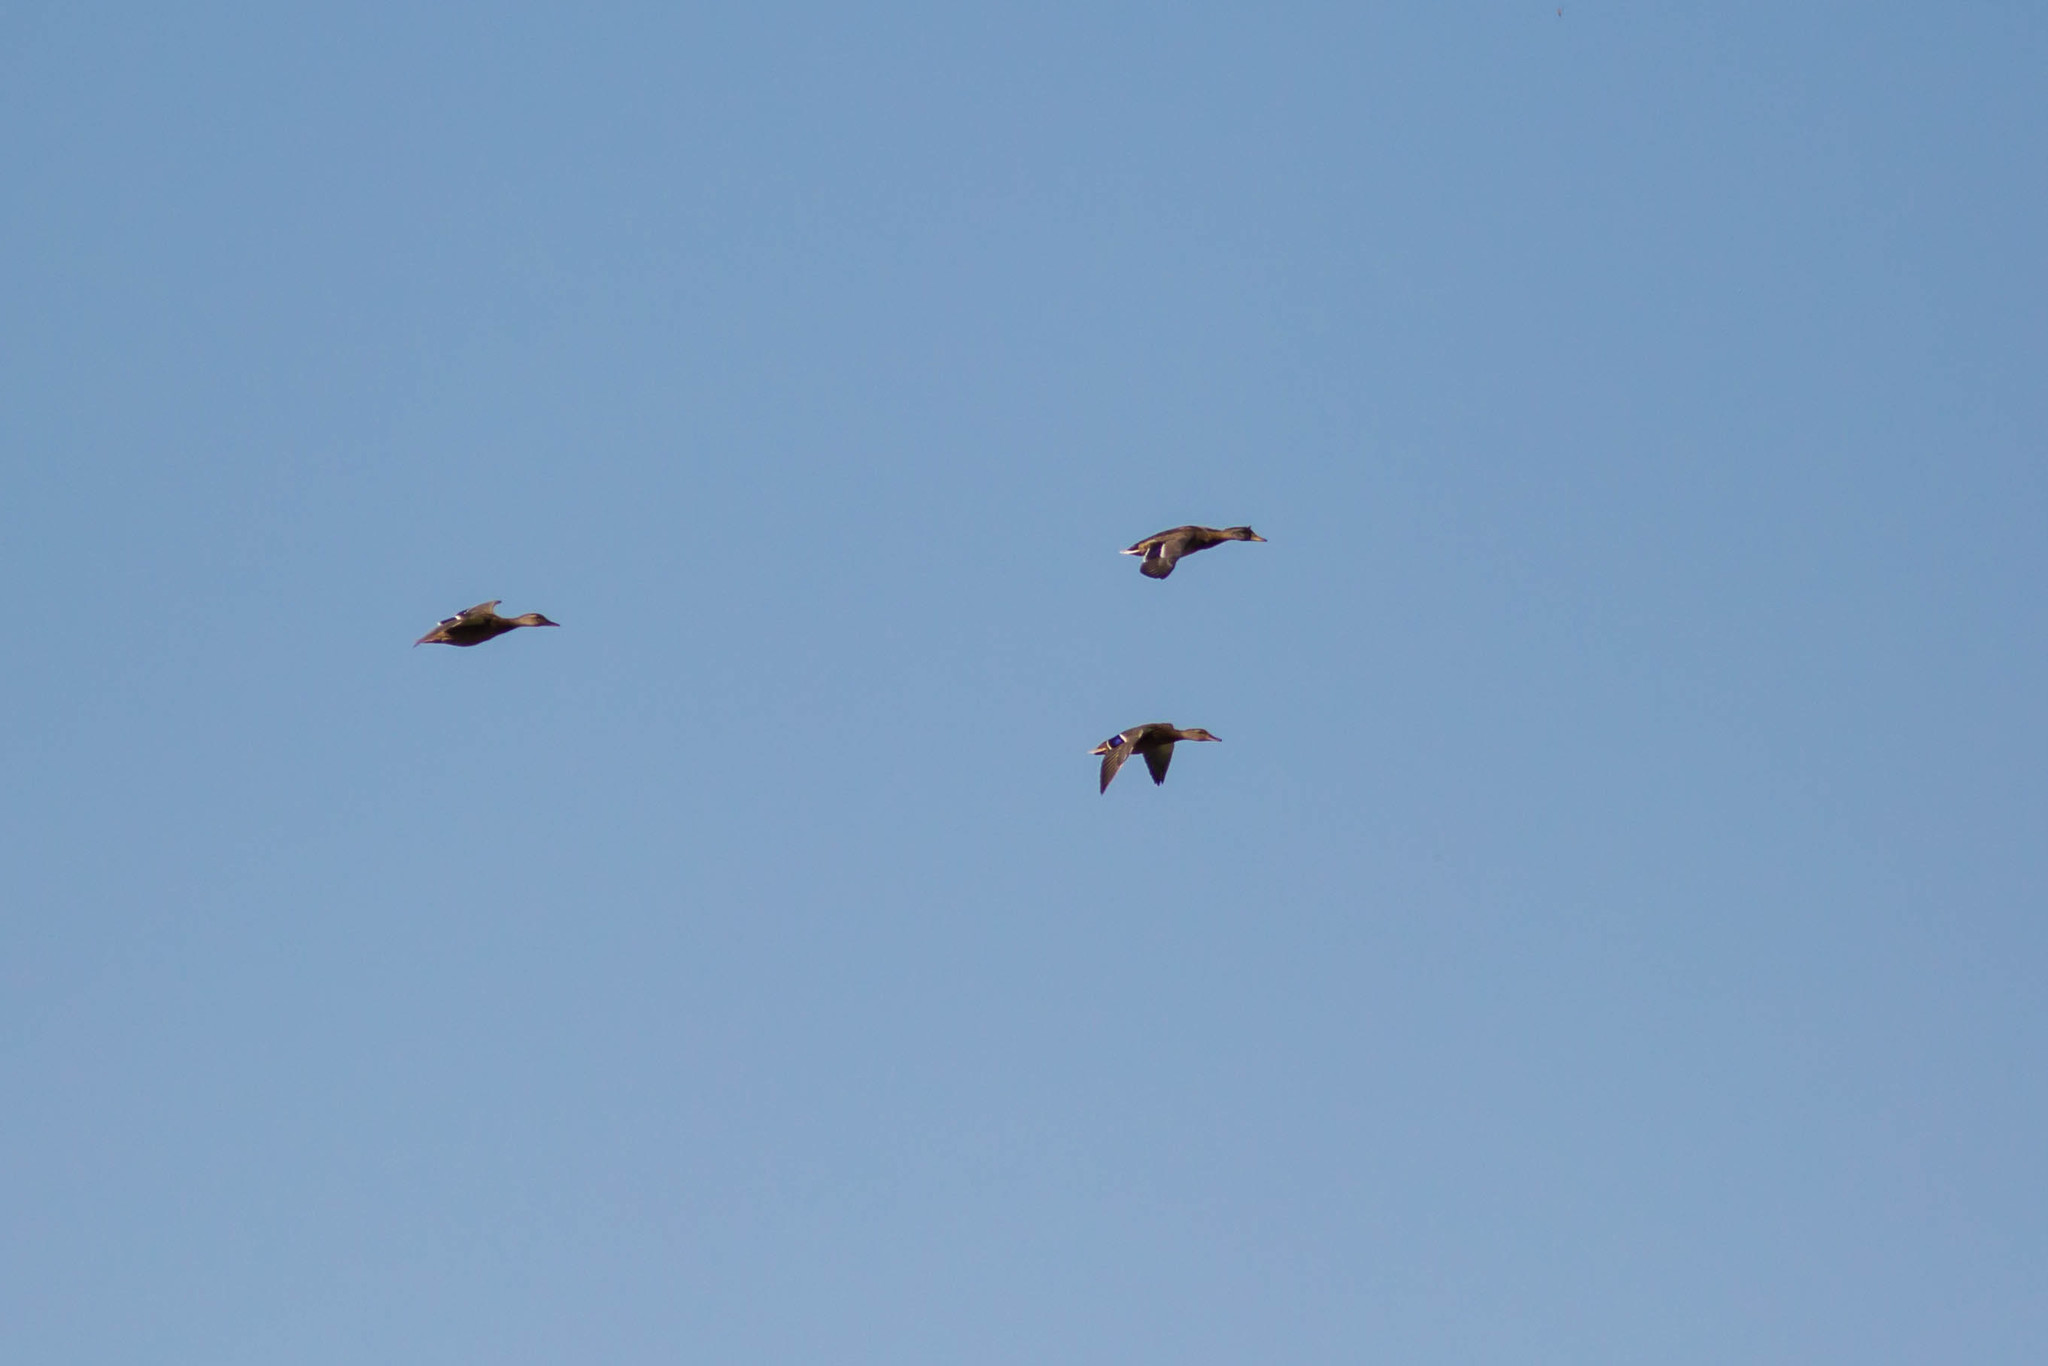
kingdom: Animalia
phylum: Chordata
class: Aves
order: Anseriformes
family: Anatidae
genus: Anas
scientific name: Anas platyrhynchos
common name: Mallard
